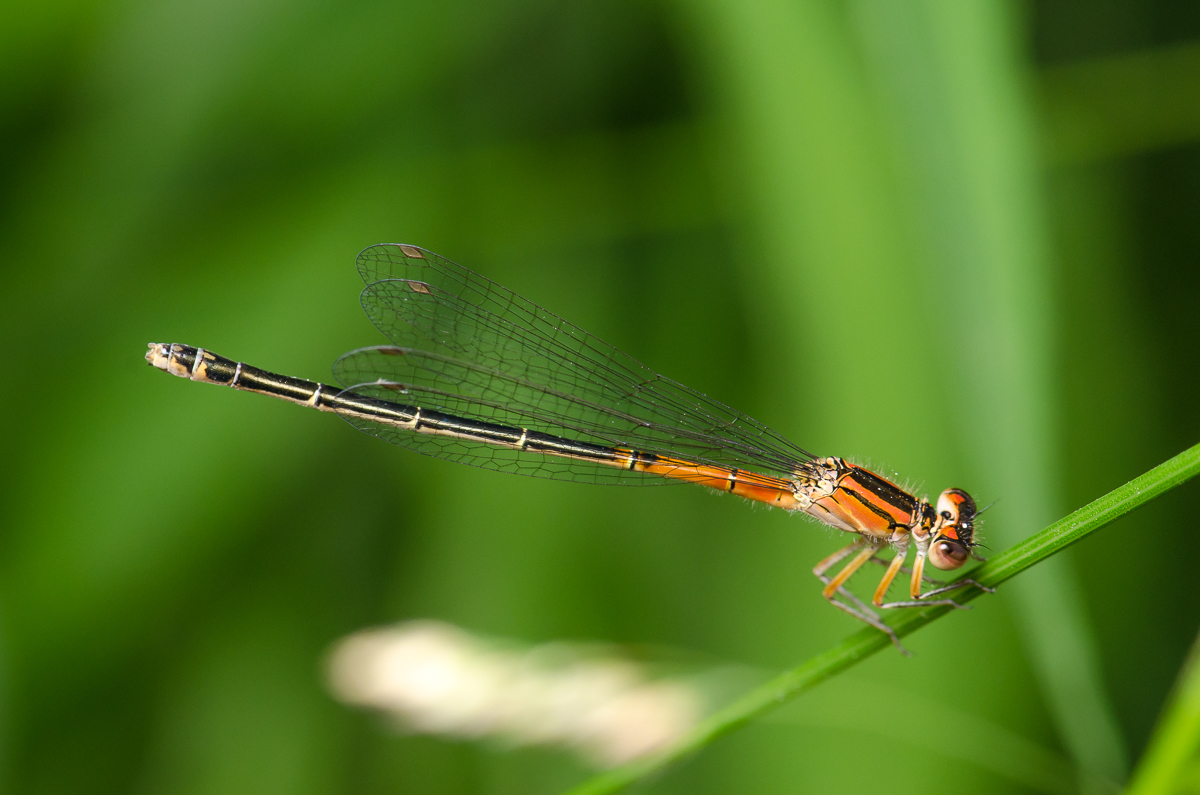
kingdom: Animalia
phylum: Arthropoda
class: Insecta
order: Odonata
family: Coenagrionidae
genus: Ischnura
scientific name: Ischnura verticalis
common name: Eastern forktail
